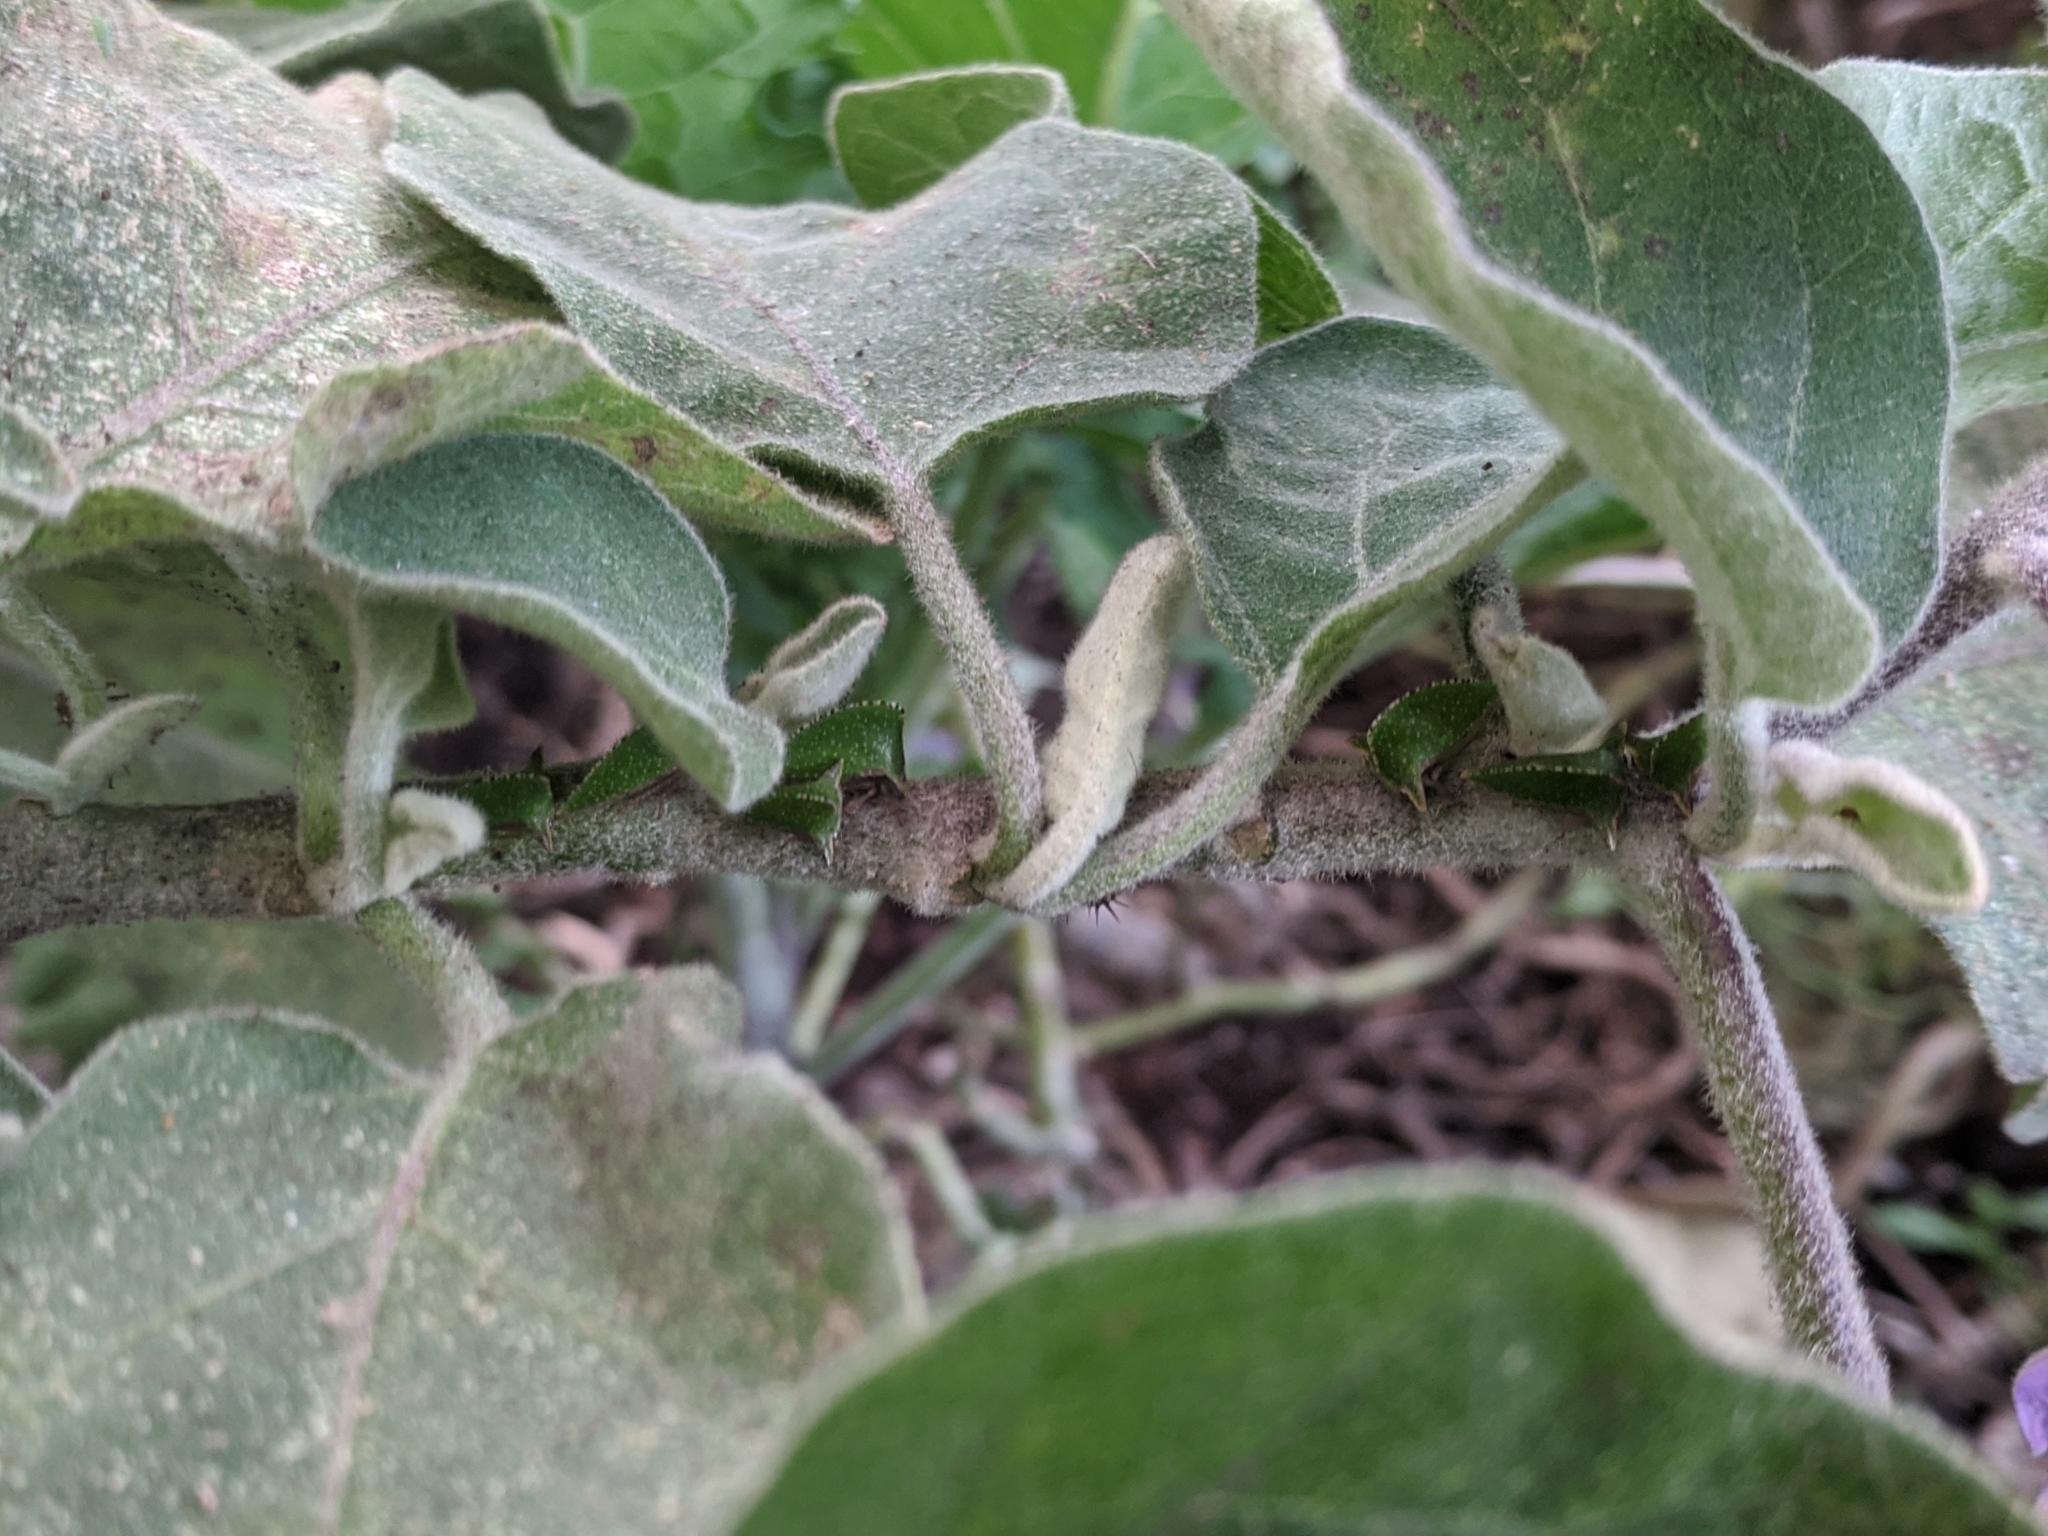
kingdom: Animalia
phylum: Arthropoda
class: Insecta
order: Hemiptera
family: Membracidae
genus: Antianthe
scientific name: Antianthe expansa
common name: Keeled tree hopper
